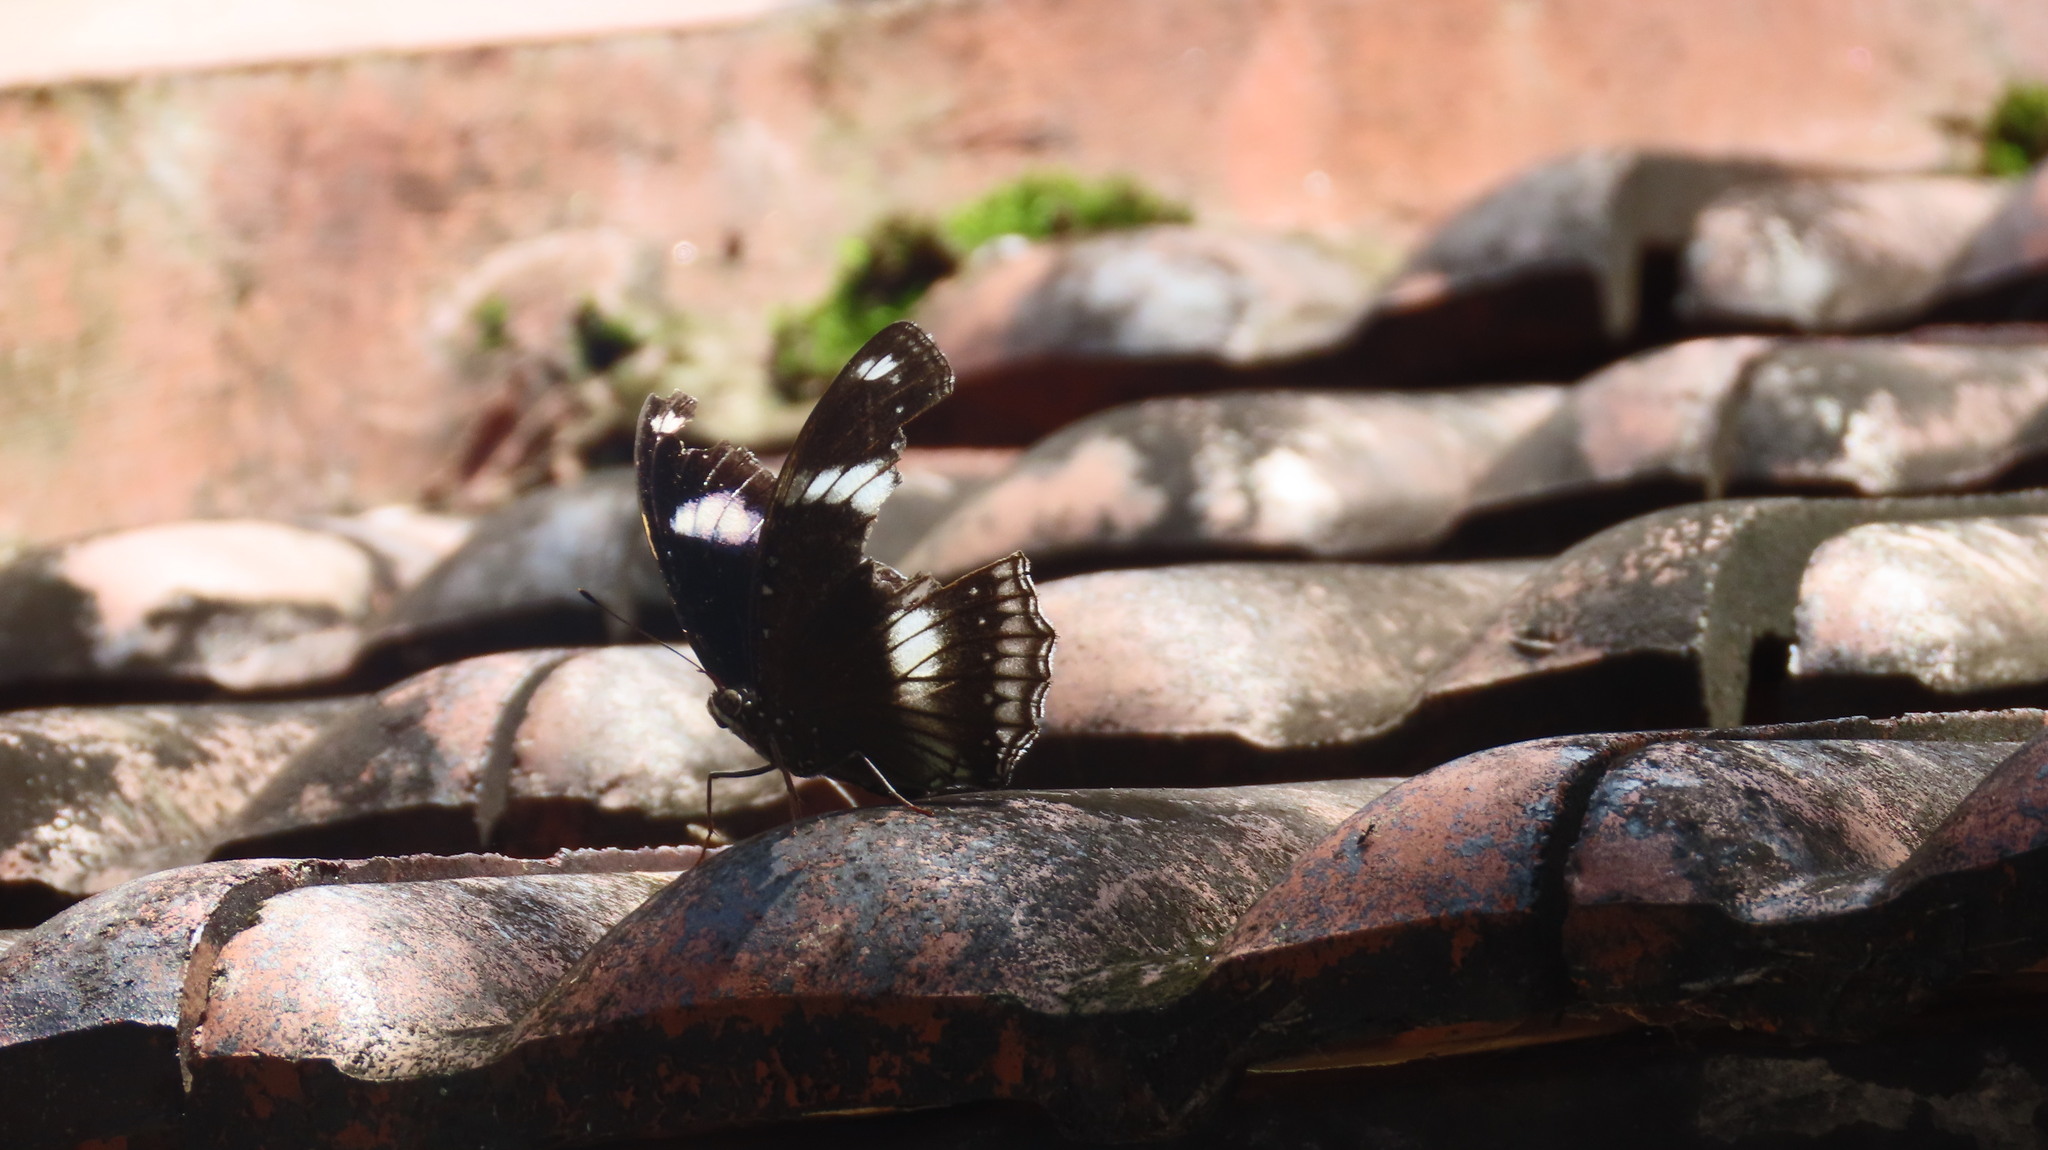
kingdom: Animalia
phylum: Arthropoda
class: Insecta
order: Lepidoptera
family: Nymphalidae
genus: Hypolimnas
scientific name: Hypolimnas bolina
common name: Great eggfly
